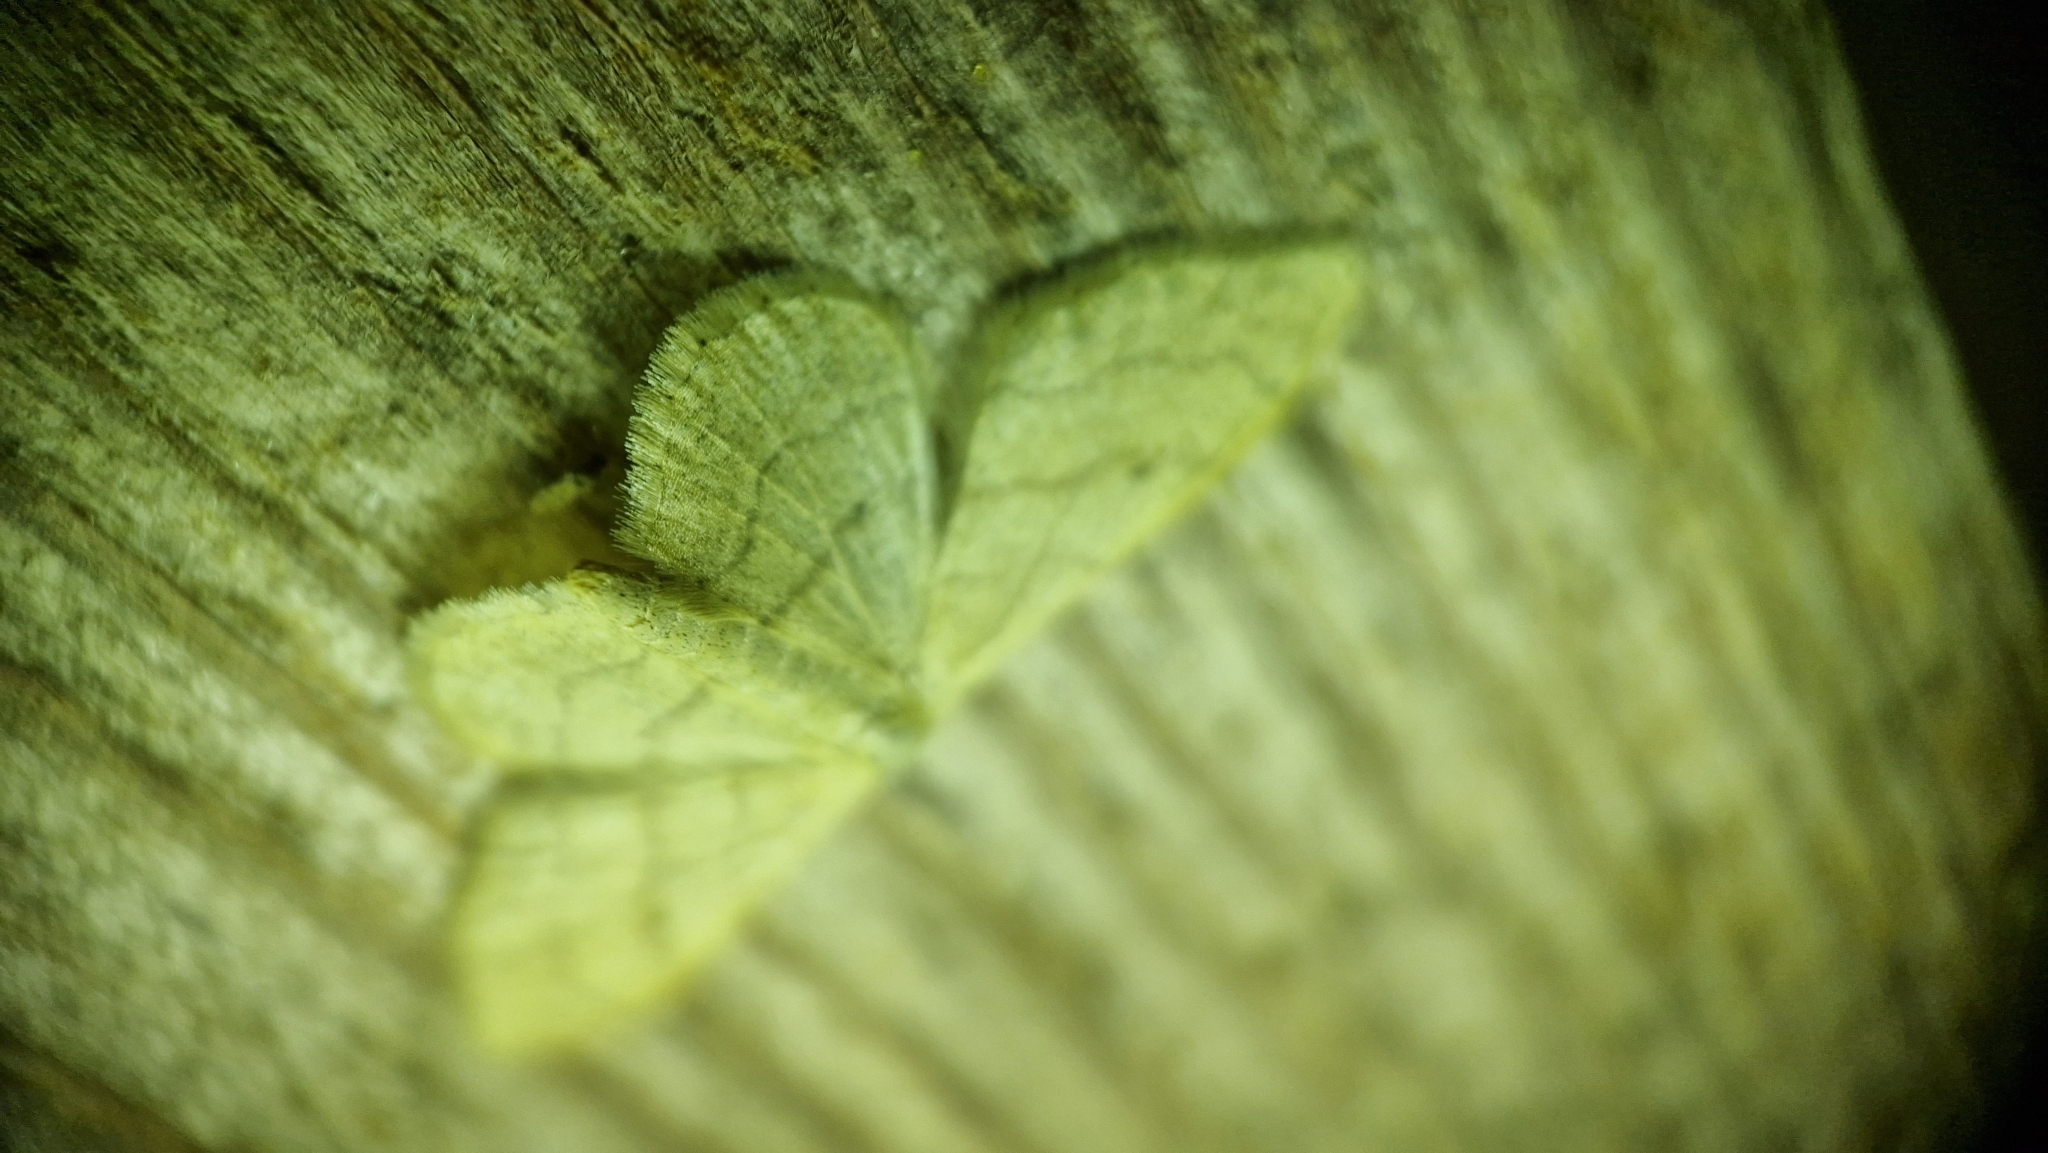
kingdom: Animalia
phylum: Arthropoda
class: Insecta
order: Lepidoptera
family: Geometridae
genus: Idaea
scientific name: Idaea aversata
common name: Riband wave
